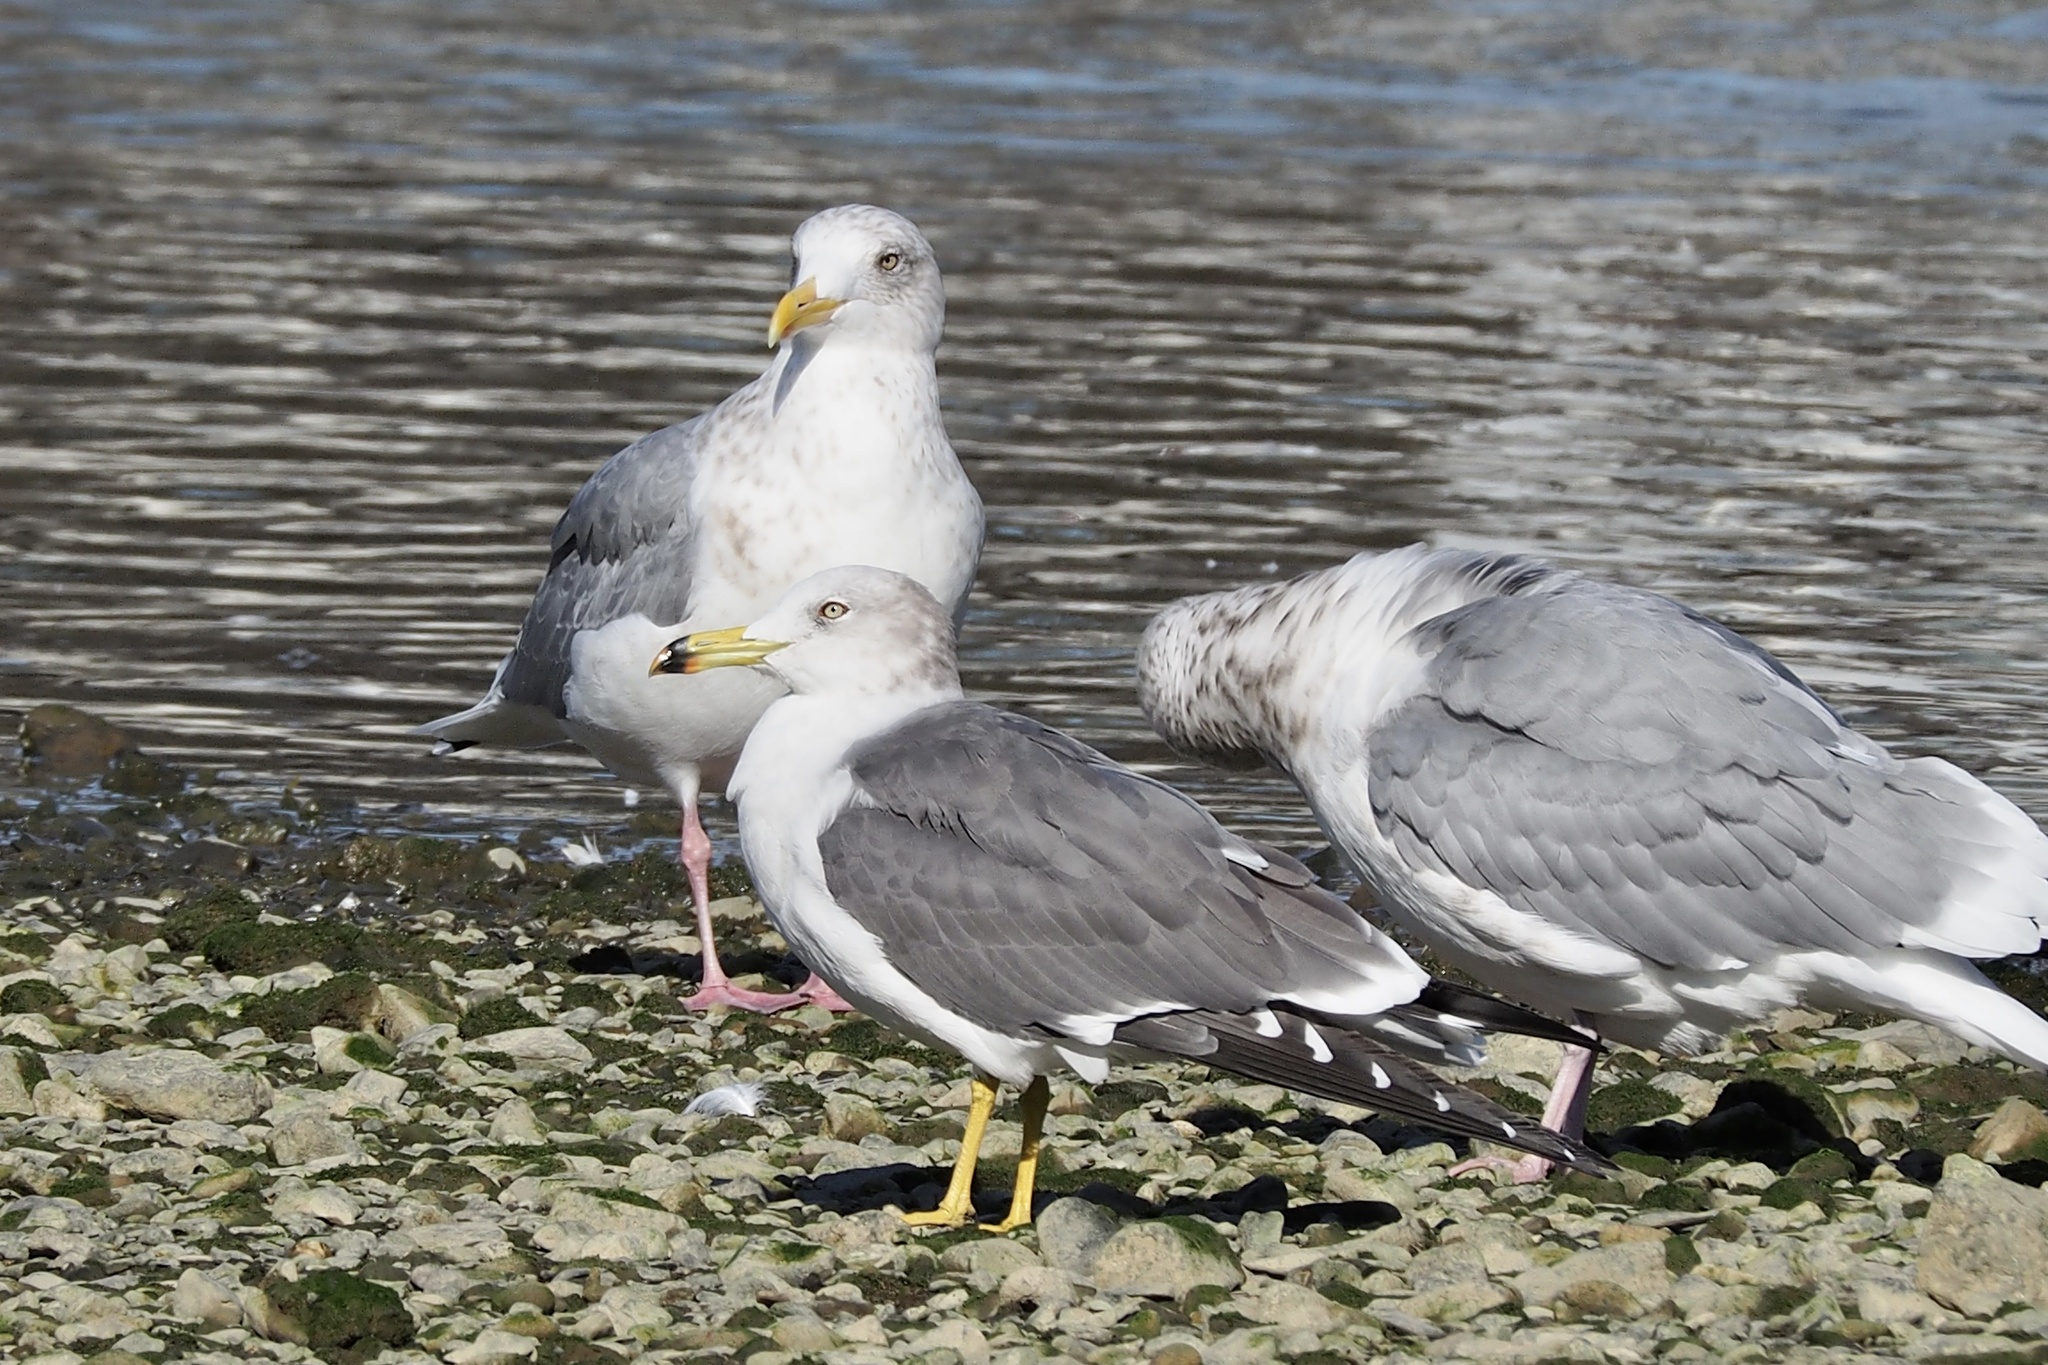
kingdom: Animalia
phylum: Chordata
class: Aves
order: Charadriiformes
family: Laridae
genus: Larus
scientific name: Larus argentatus
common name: Herring gull
